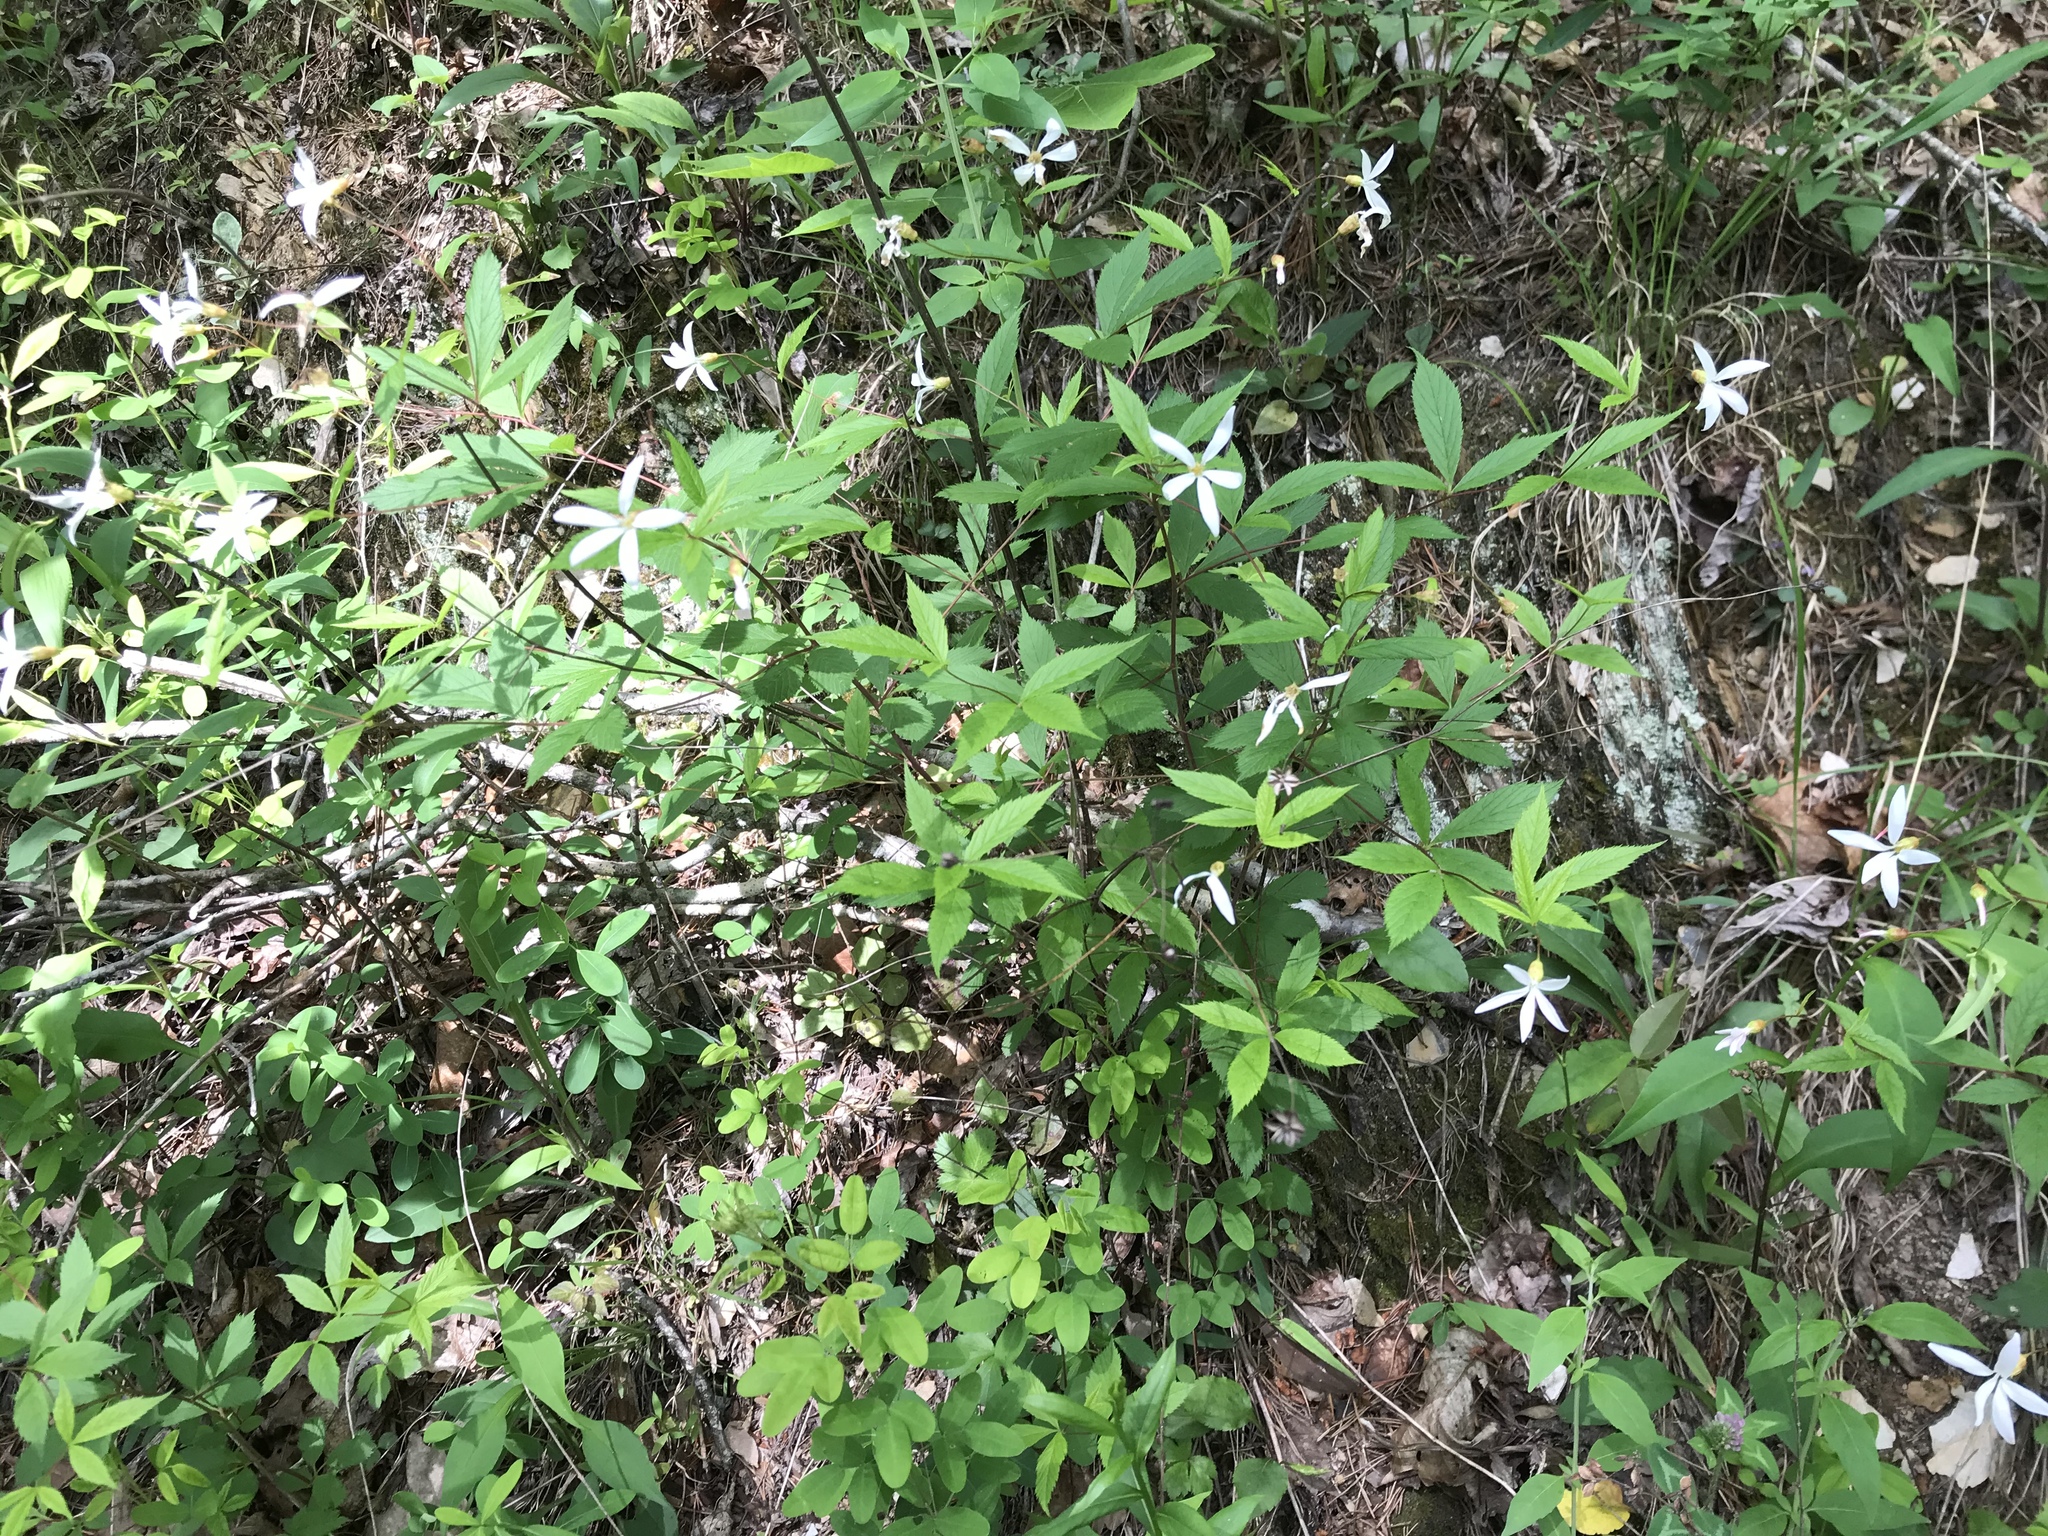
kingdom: Plantae
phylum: Tracheophyta
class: Magnoliopsida
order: Rosales
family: Rosaceae
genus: Gillenia
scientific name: Gillenia trifoliata
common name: Bowman's-root
